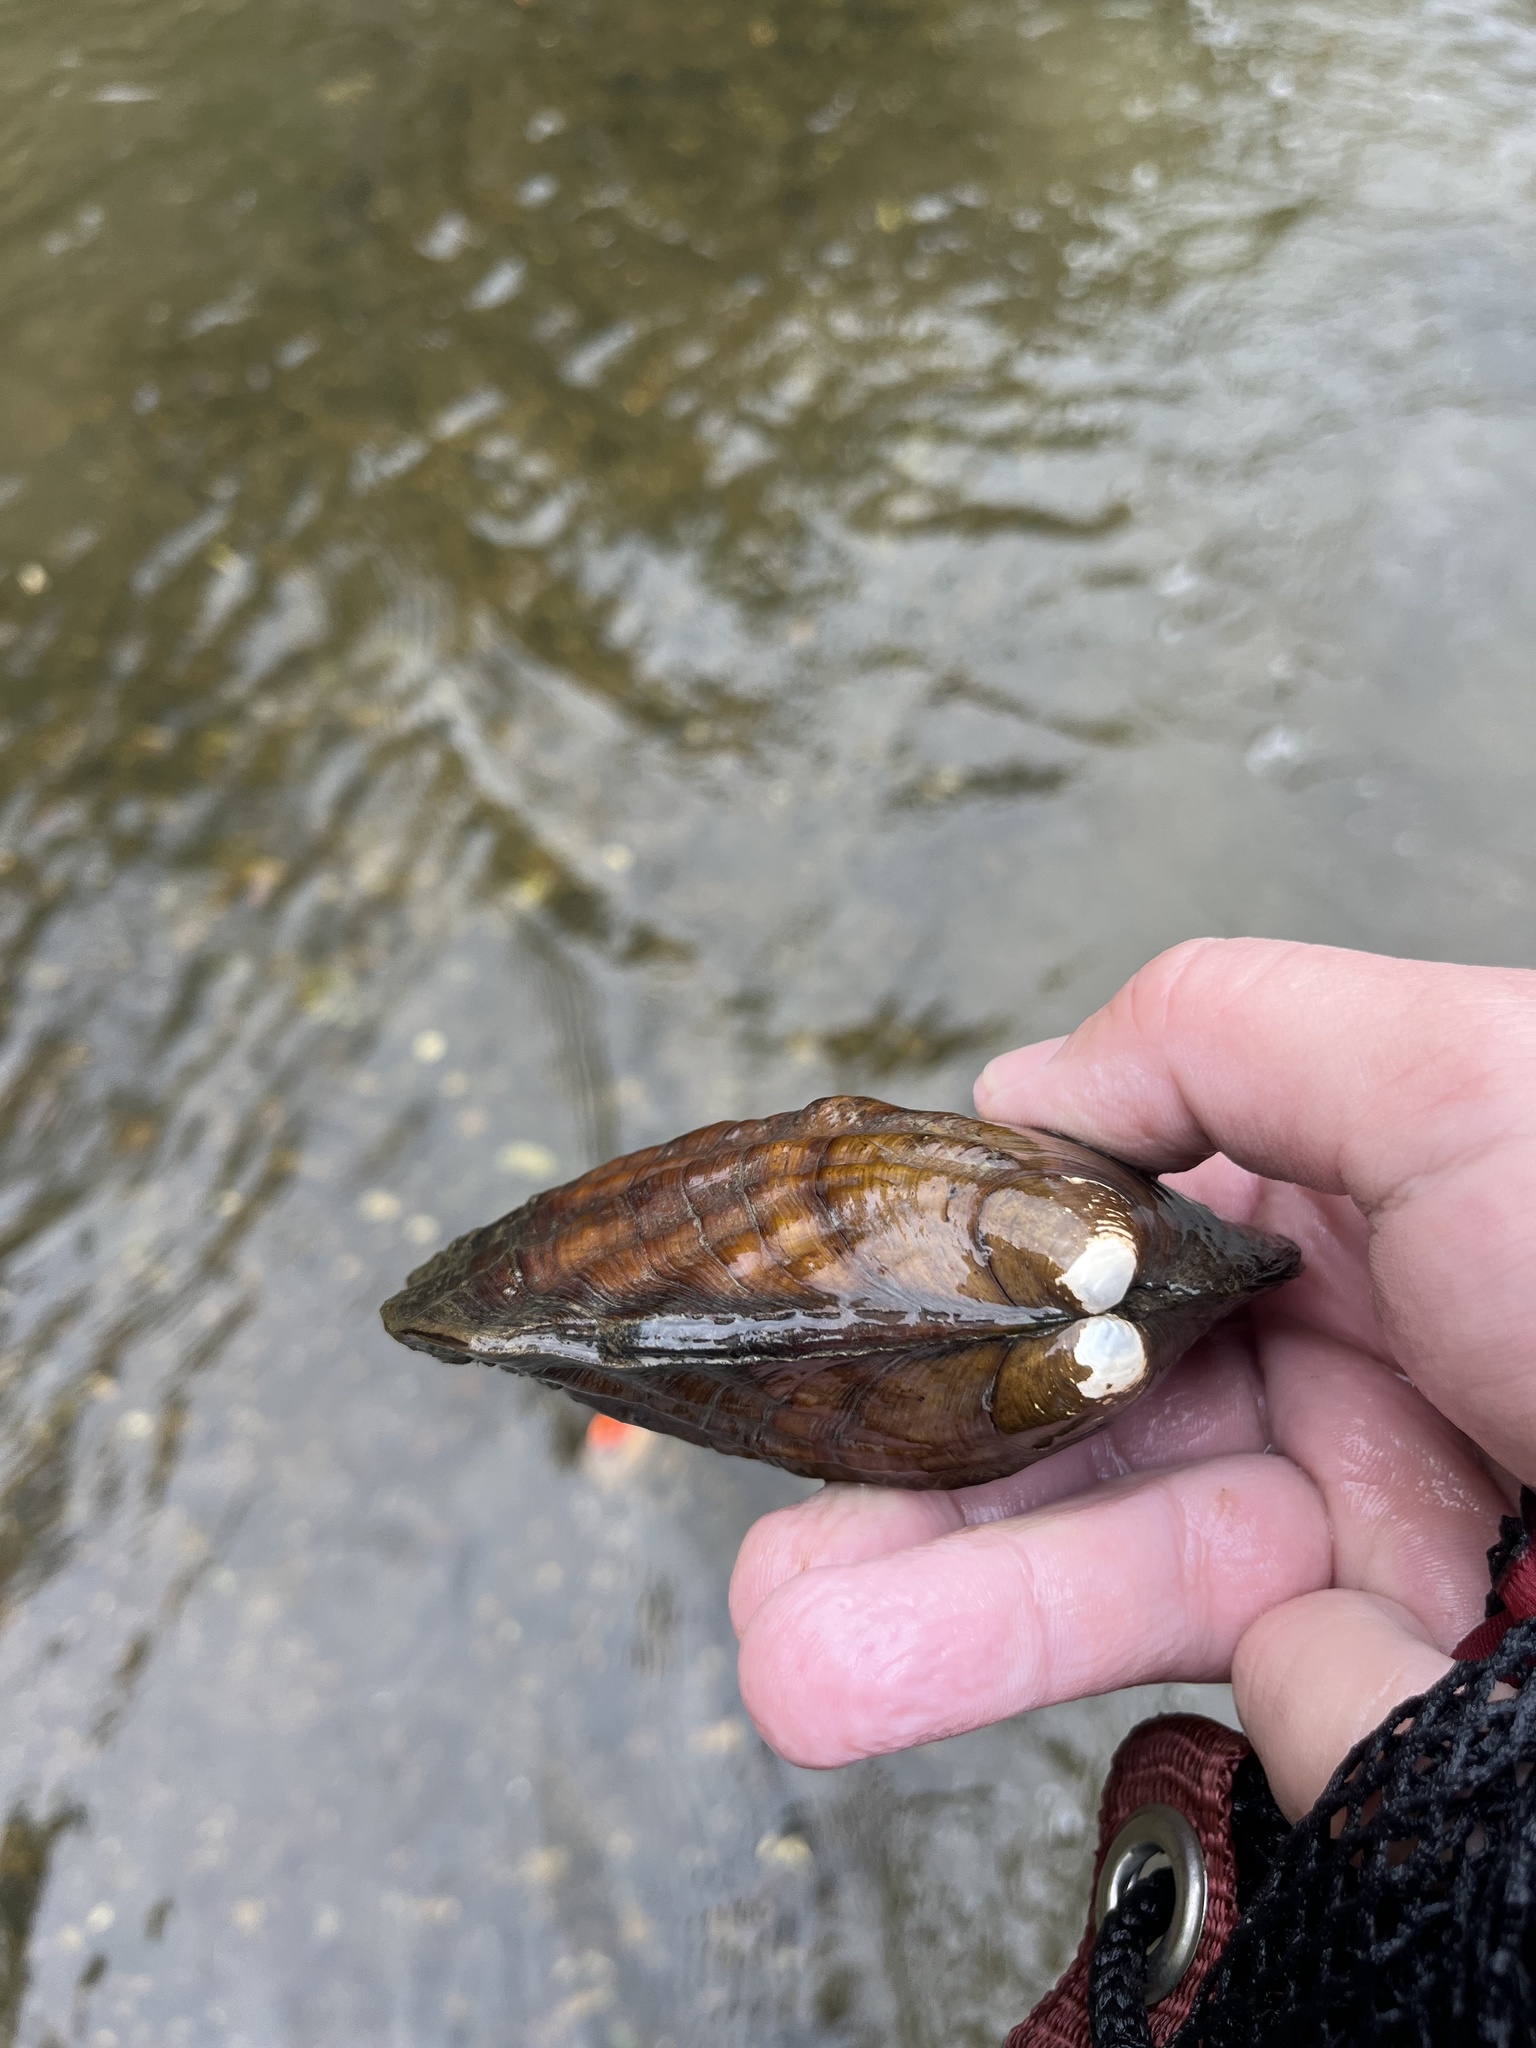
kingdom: Animalia
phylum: Mollusca
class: Bivalvia
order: Unionida
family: Unionidae
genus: Amblema
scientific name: Amblema plicata
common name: Threeridge
